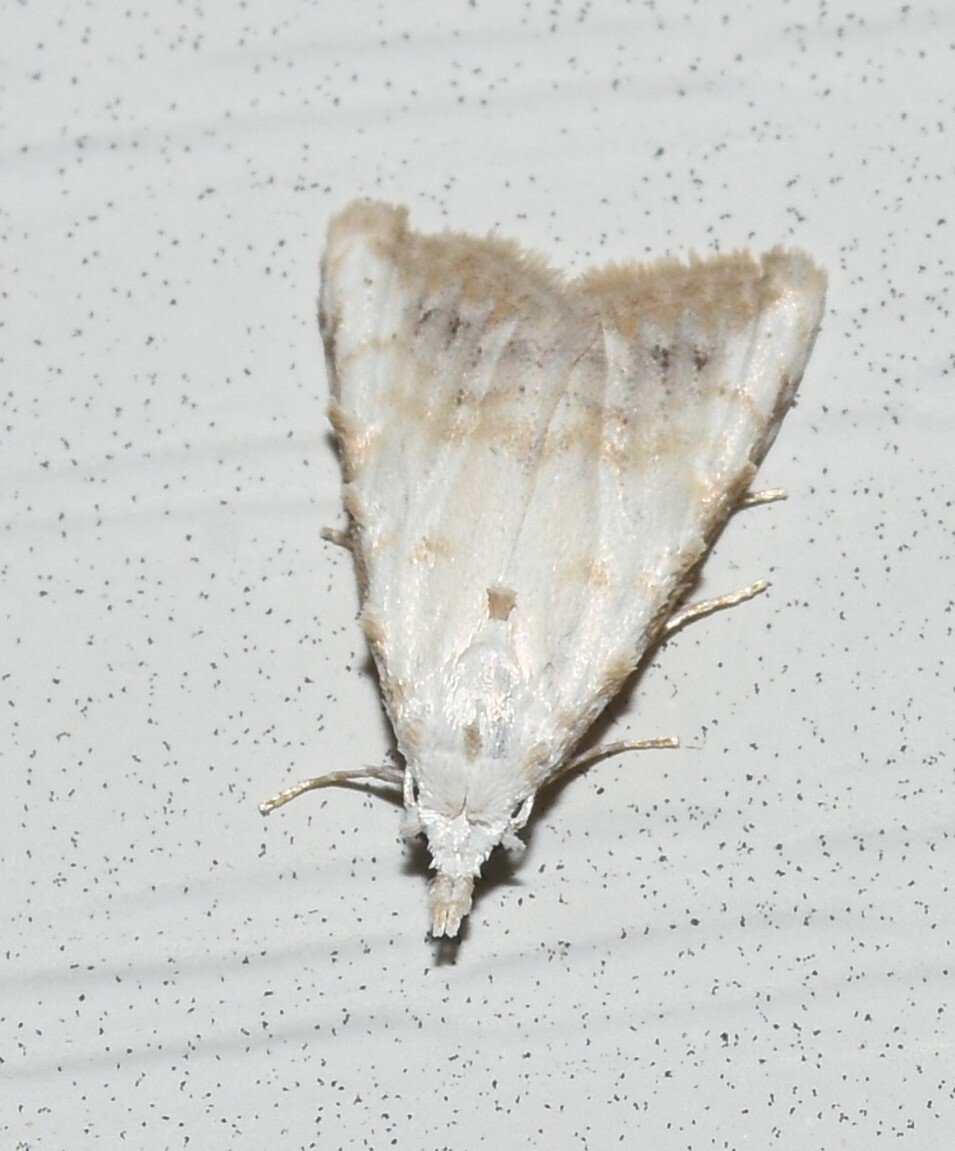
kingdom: Animalia
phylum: Arthropoda
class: Insecta
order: Lepidoptera
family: Nolidae
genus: Nola
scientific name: Nola cereella
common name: Sorghum webworm moth
